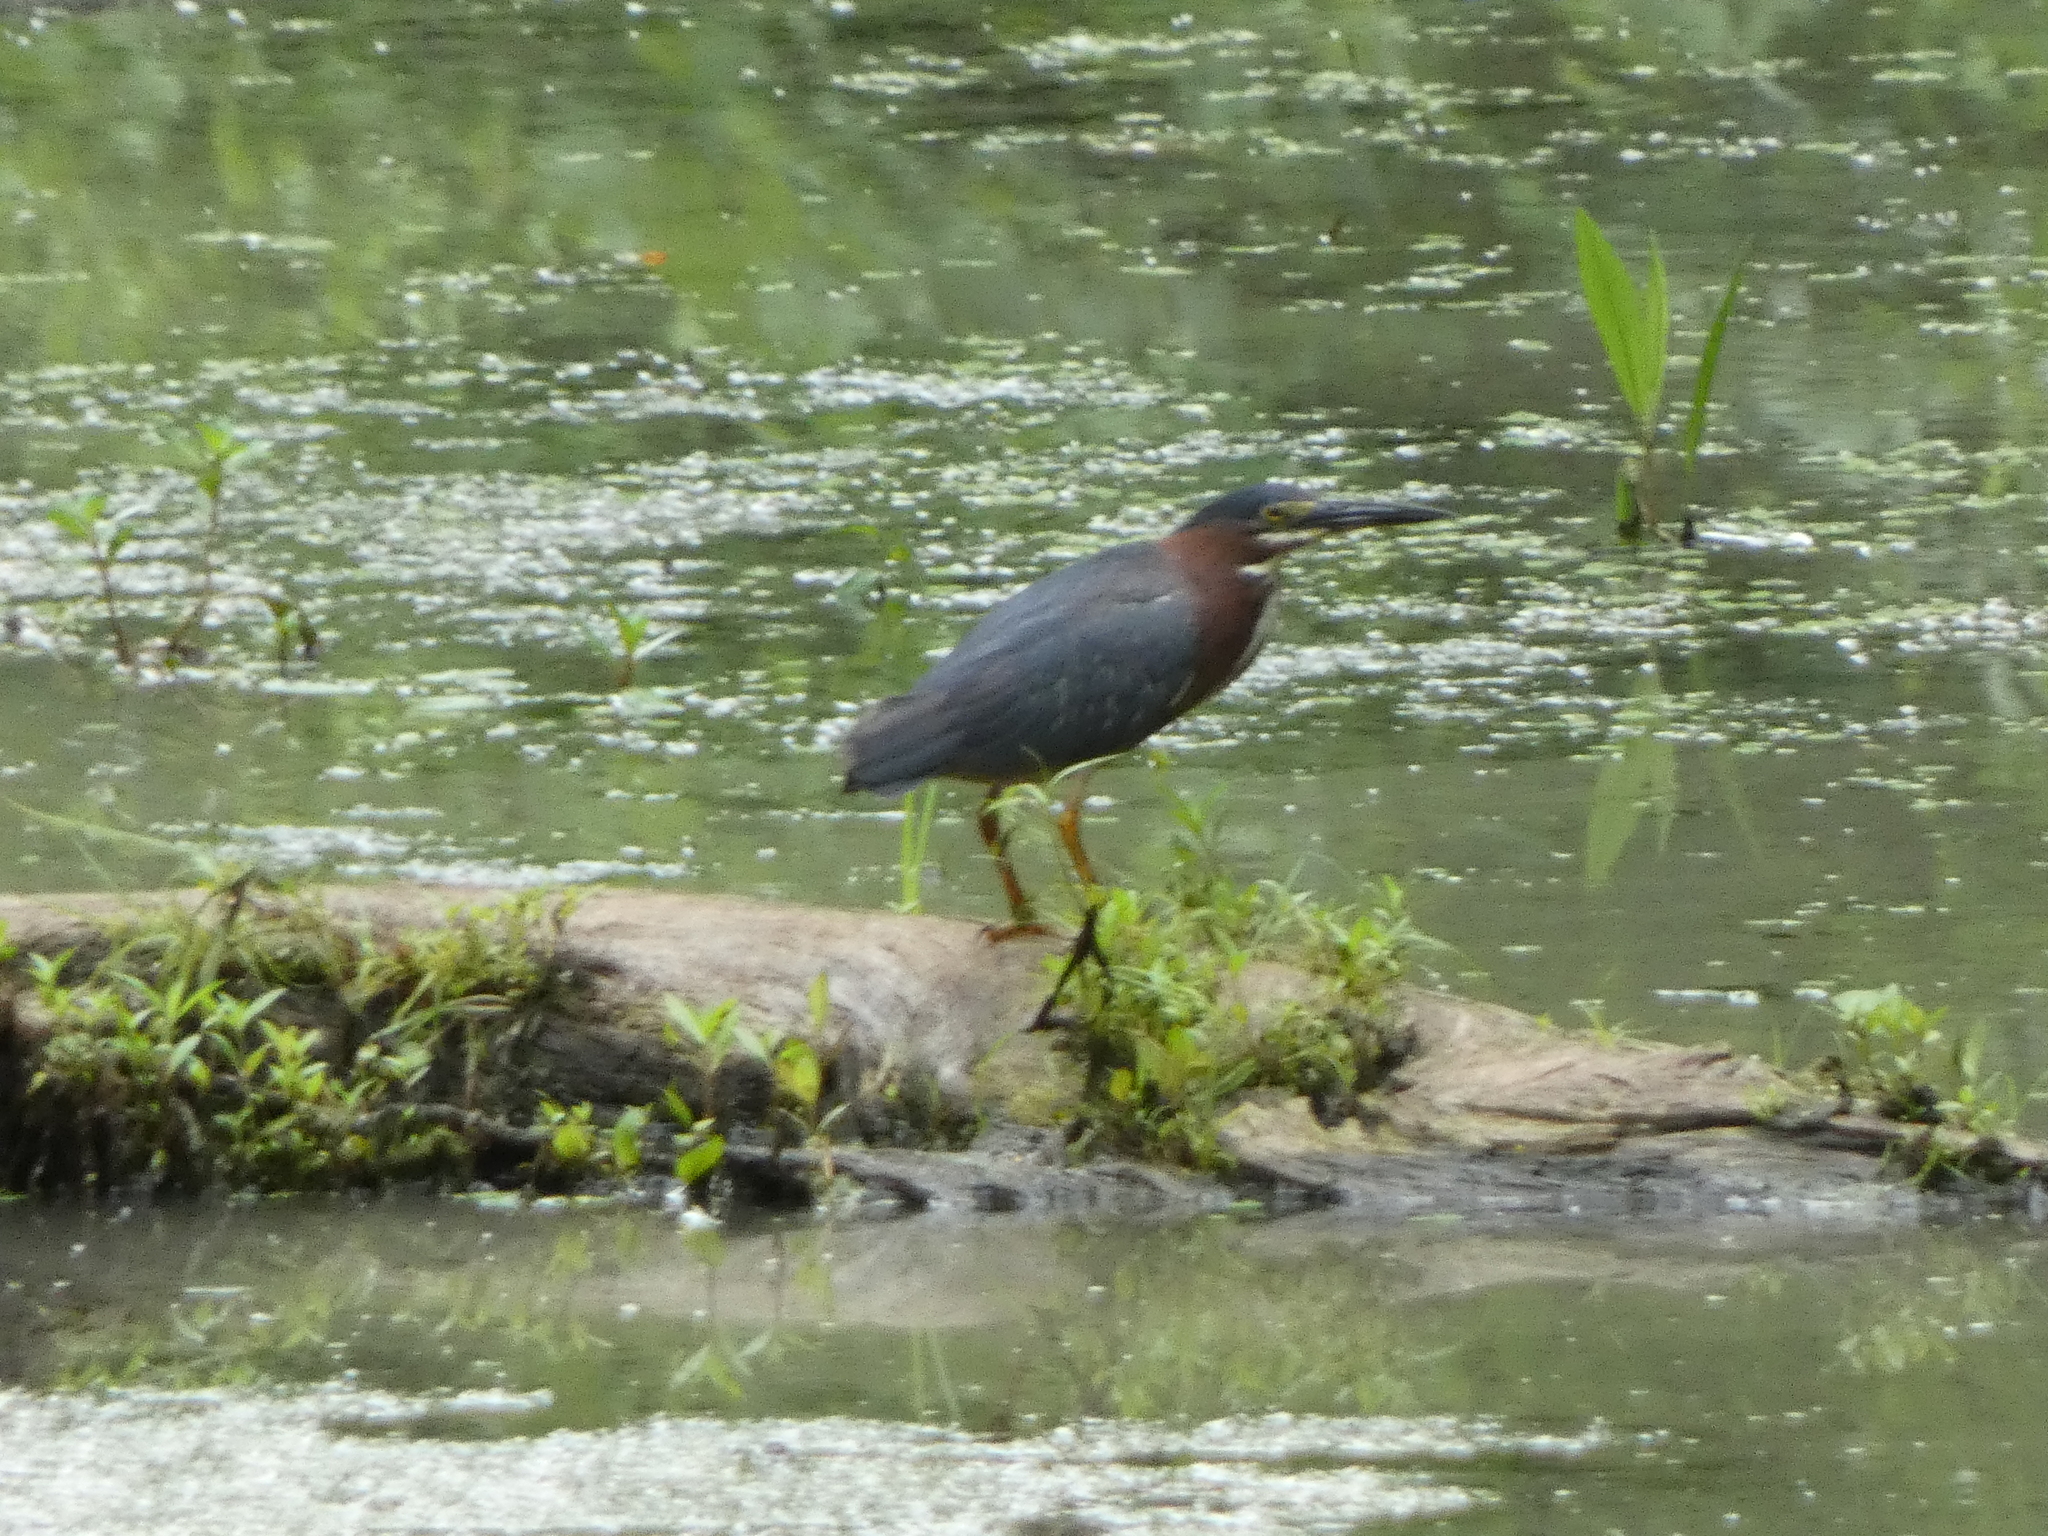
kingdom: Animalia
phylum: Chordata
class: Aves
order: Pelecaniformes
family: Ardeidae
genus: Butorides
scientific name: Butorides virescens
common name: Green heron
